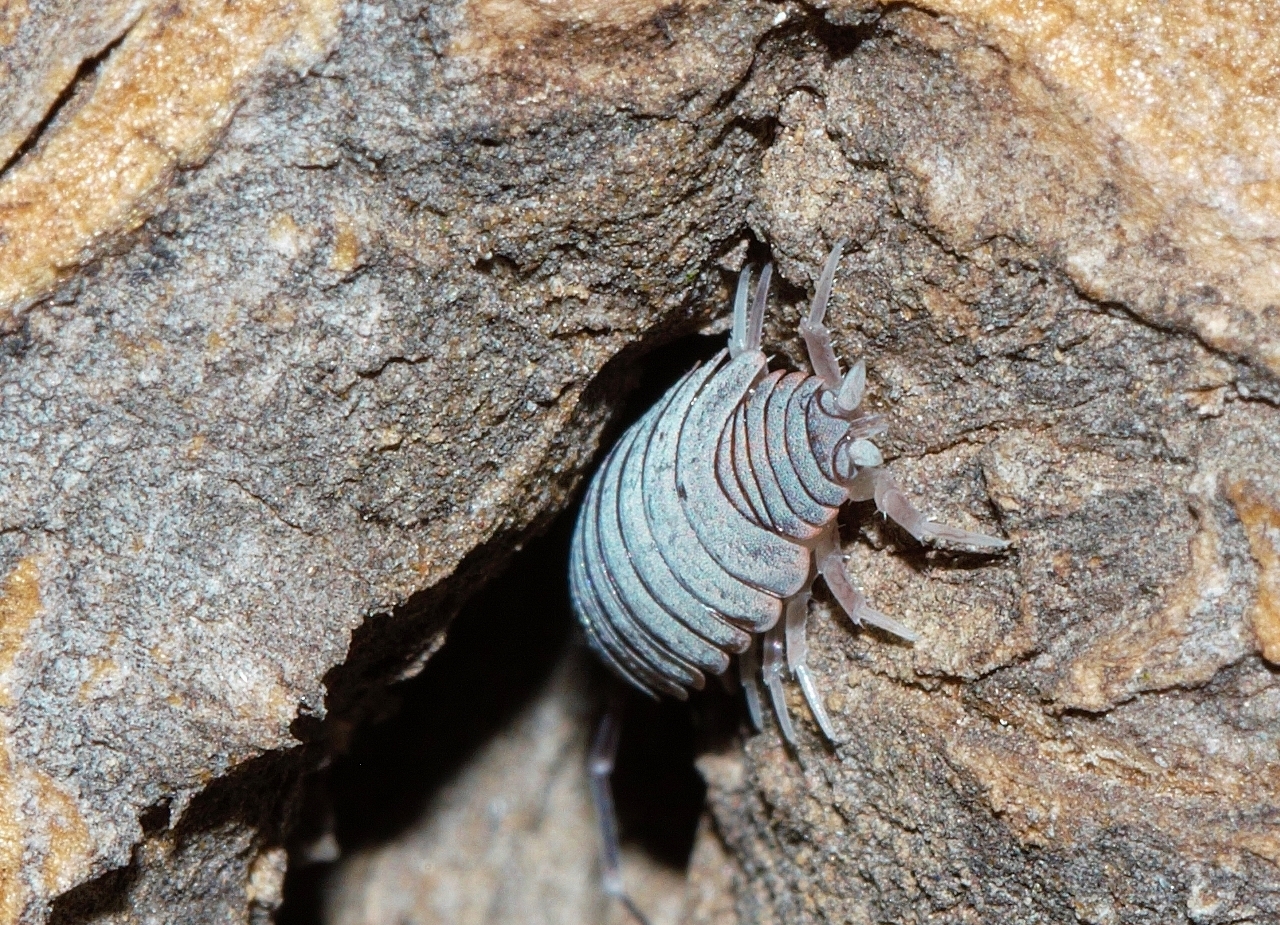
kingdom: Animalia
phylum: Arthropoda
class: Malacostraca
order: Isopoda
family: Porcellionidae
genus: Porcellionides
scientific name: Porcellionides pruinosus
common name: Plum woodlouse
